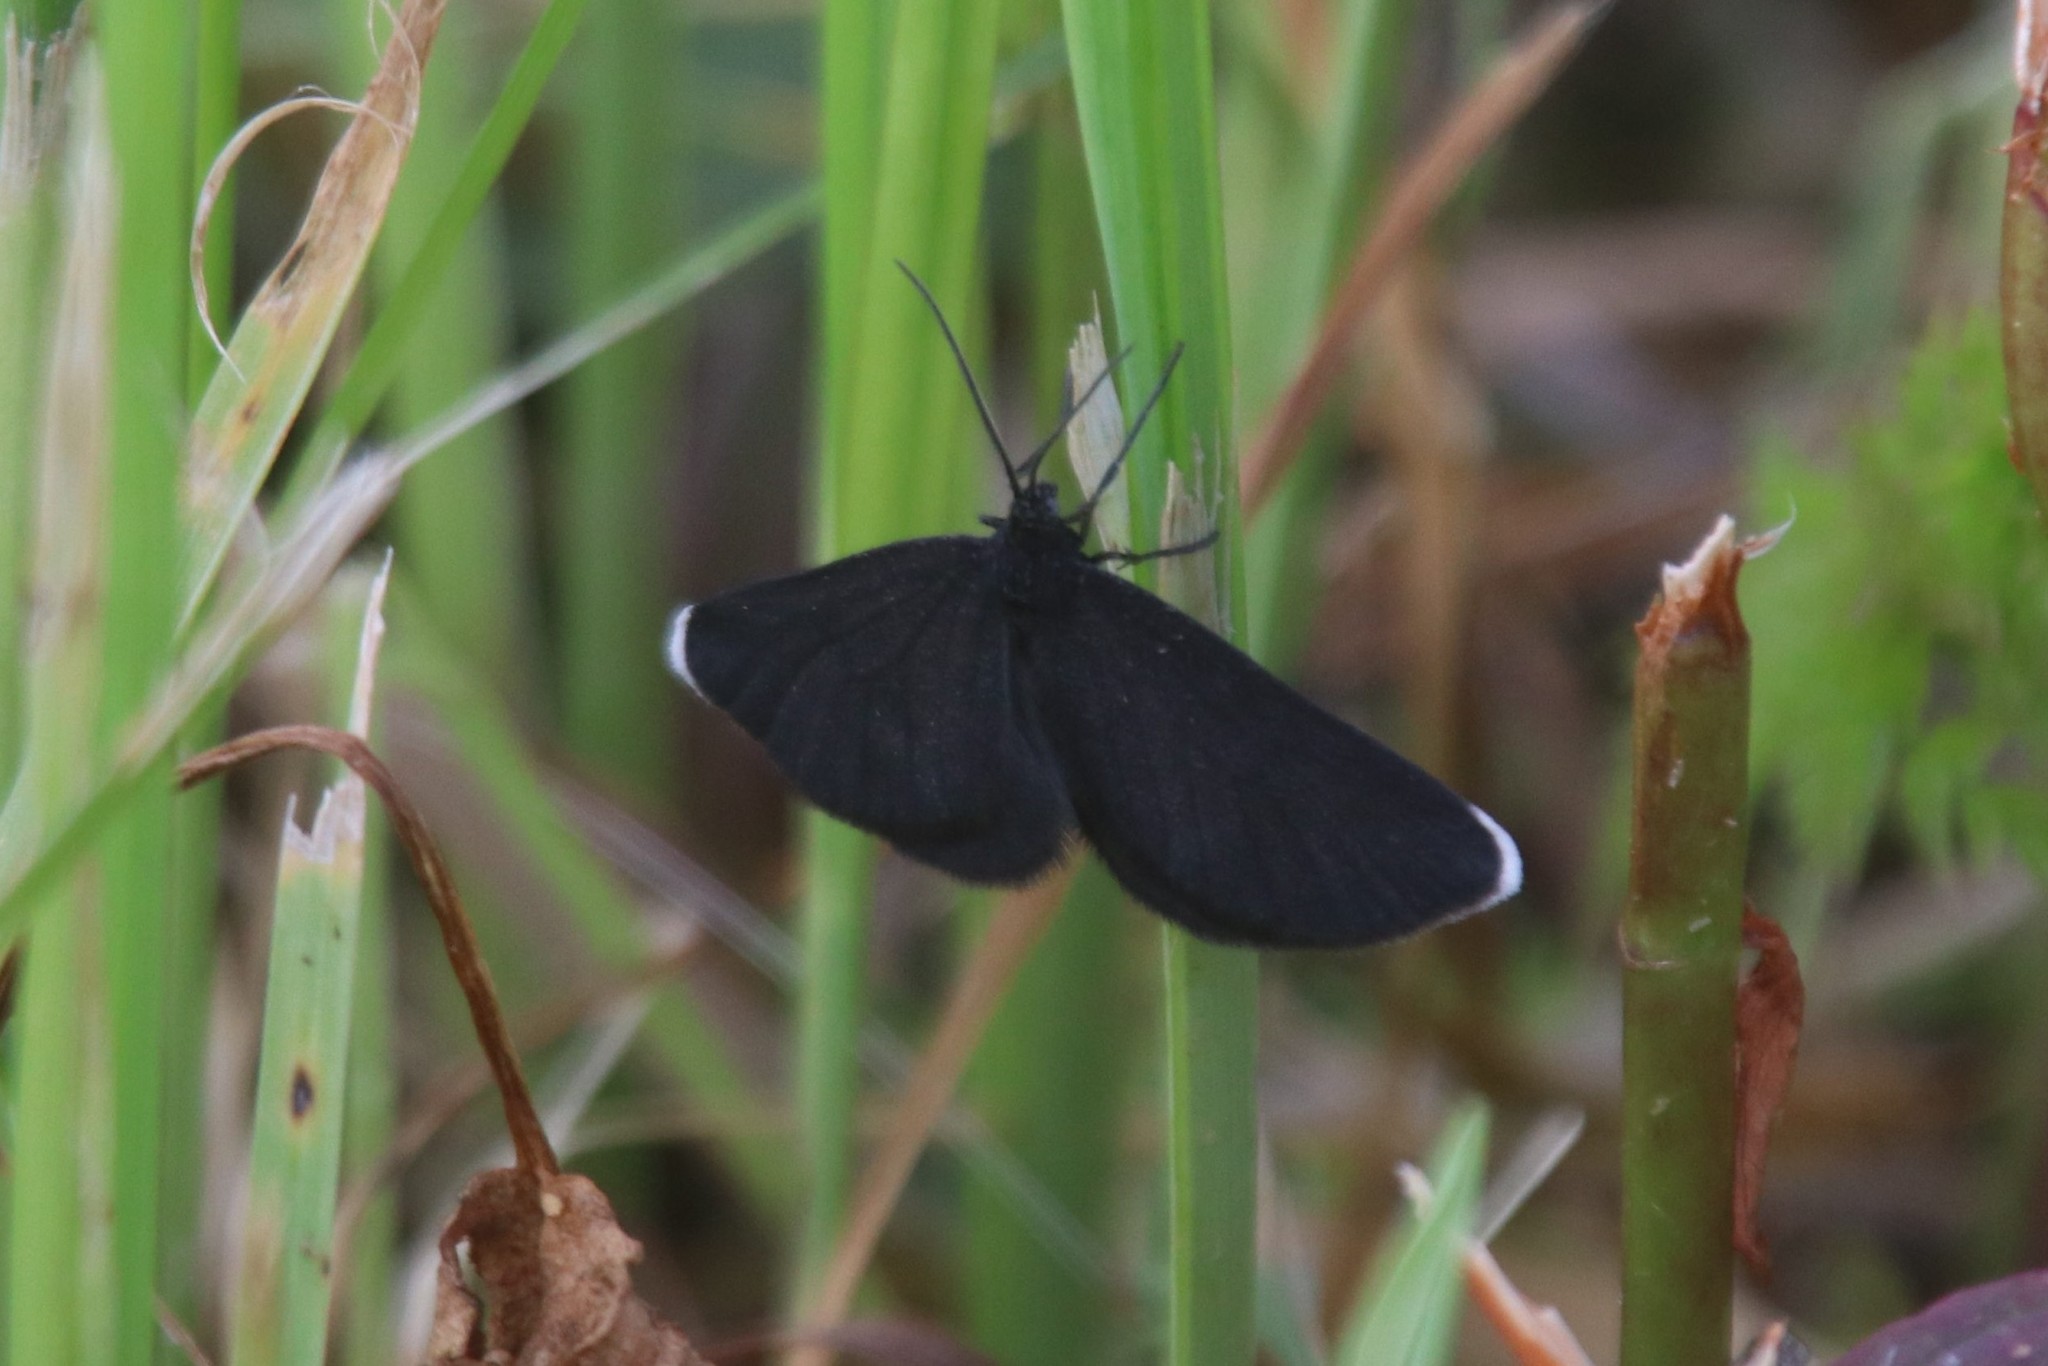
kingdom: Animalia
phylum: Arthropoda
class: Insecta
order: Lepidoptera
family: Geometridae
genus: Odezia
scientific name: Odezia atrata
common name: Chimney sweeper
